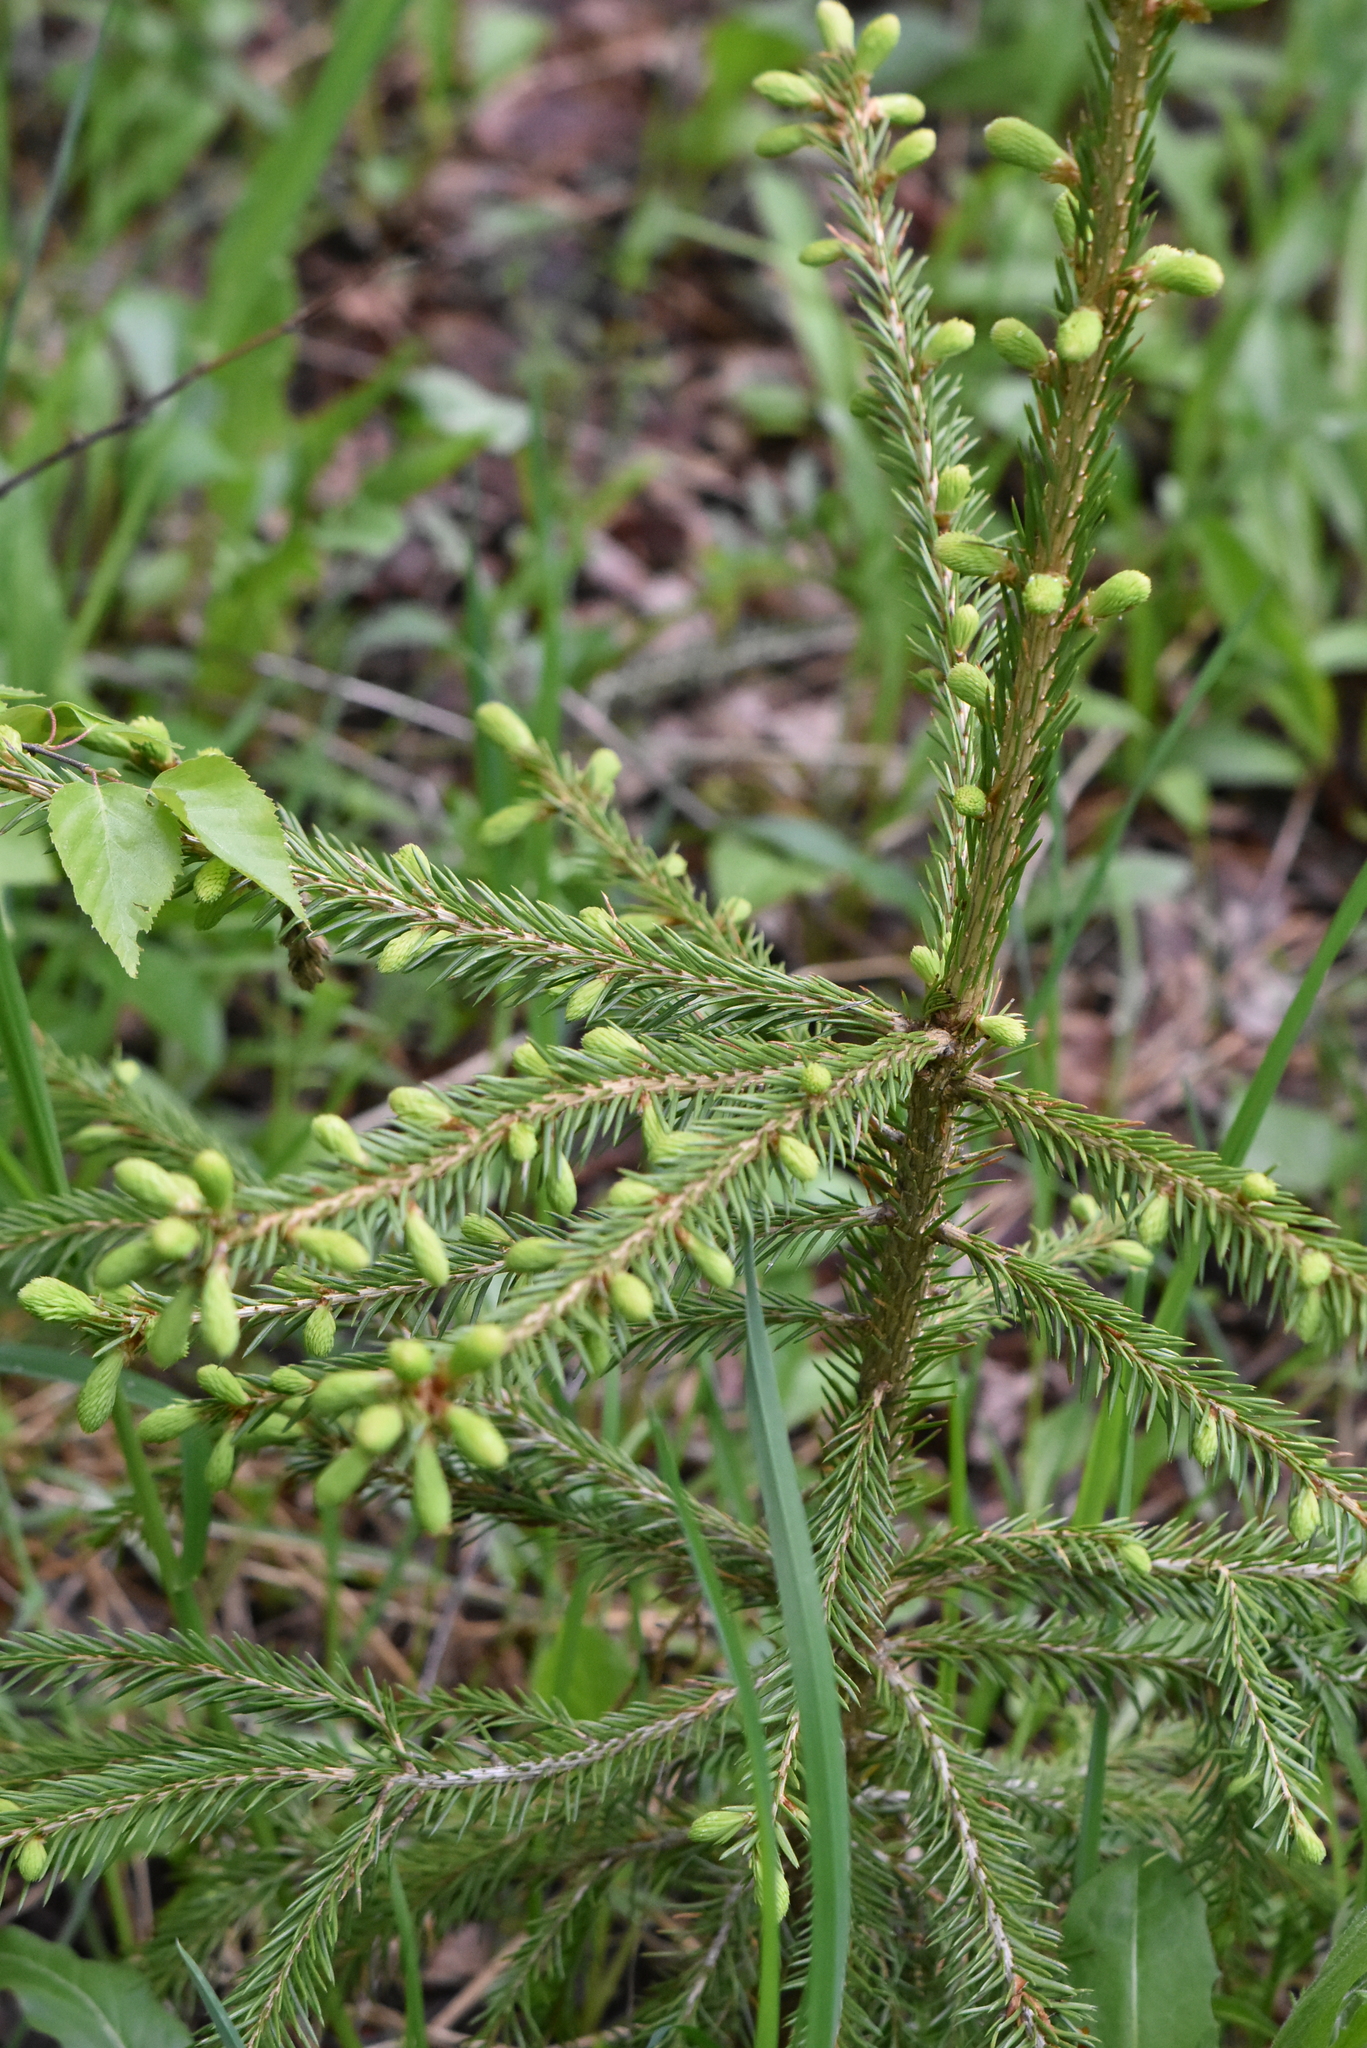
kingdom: Plantae
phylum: Tracheophyta
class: Pinopsida
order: Pinales
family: Pinaceae
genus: Picea
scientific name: Picea abies
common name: Norway spruce
